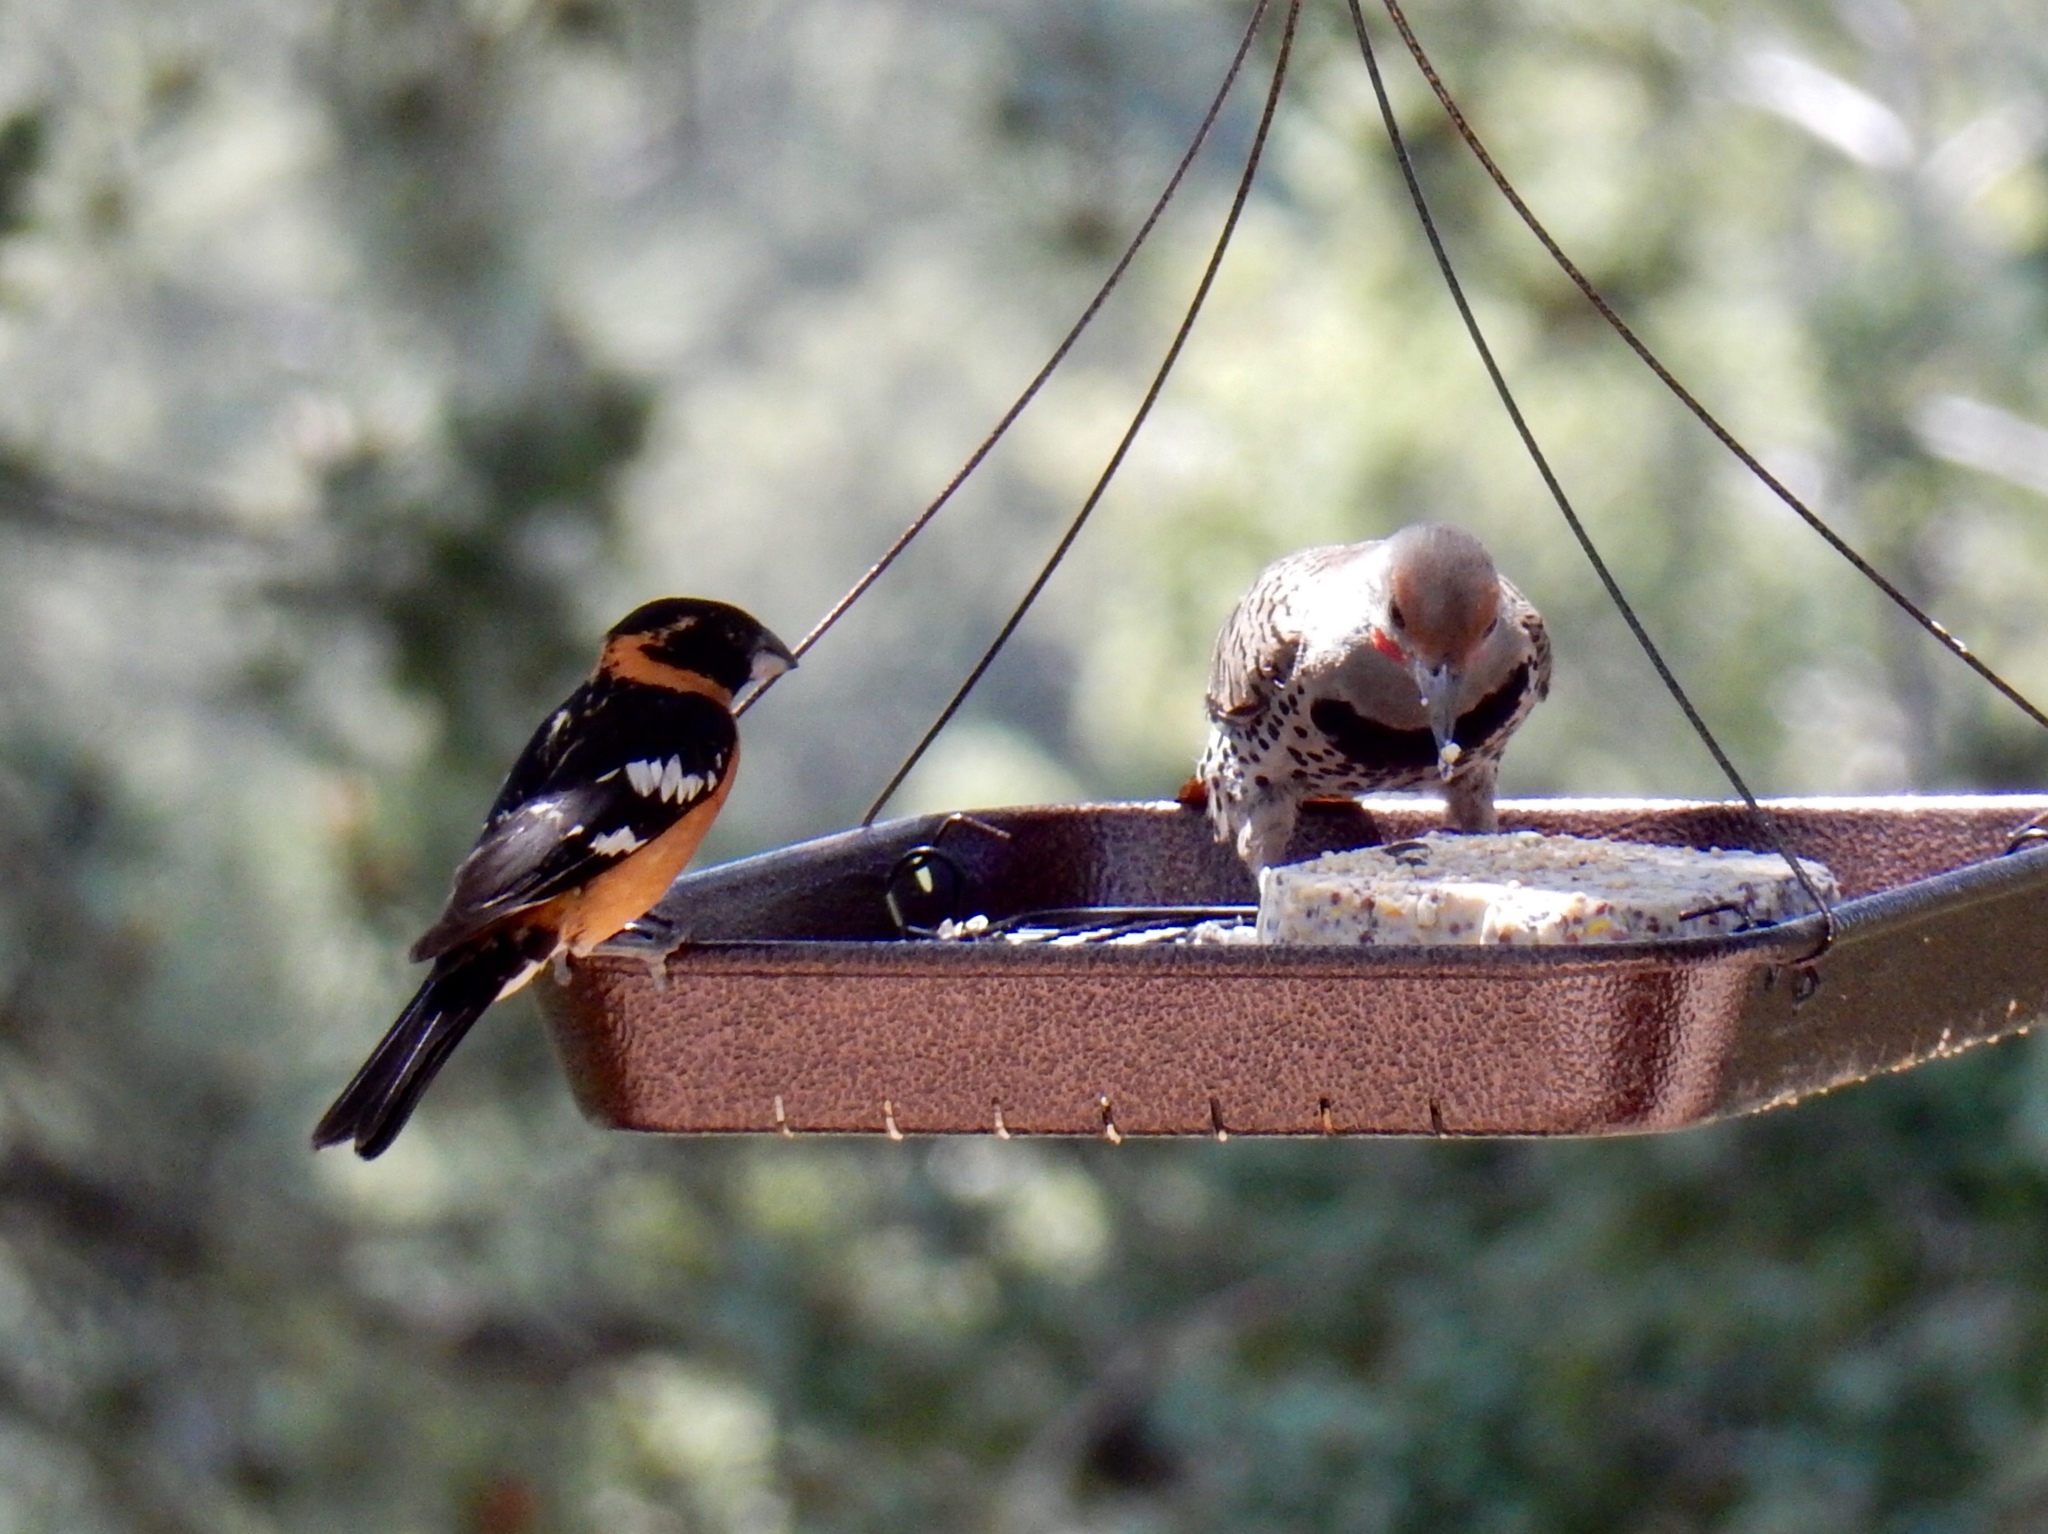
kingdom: Animalia
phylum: Chordata
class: Aves
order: Piciformes
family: Picidae
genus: Colaptes
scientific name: Colaptes auratus
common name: Northern flicker
